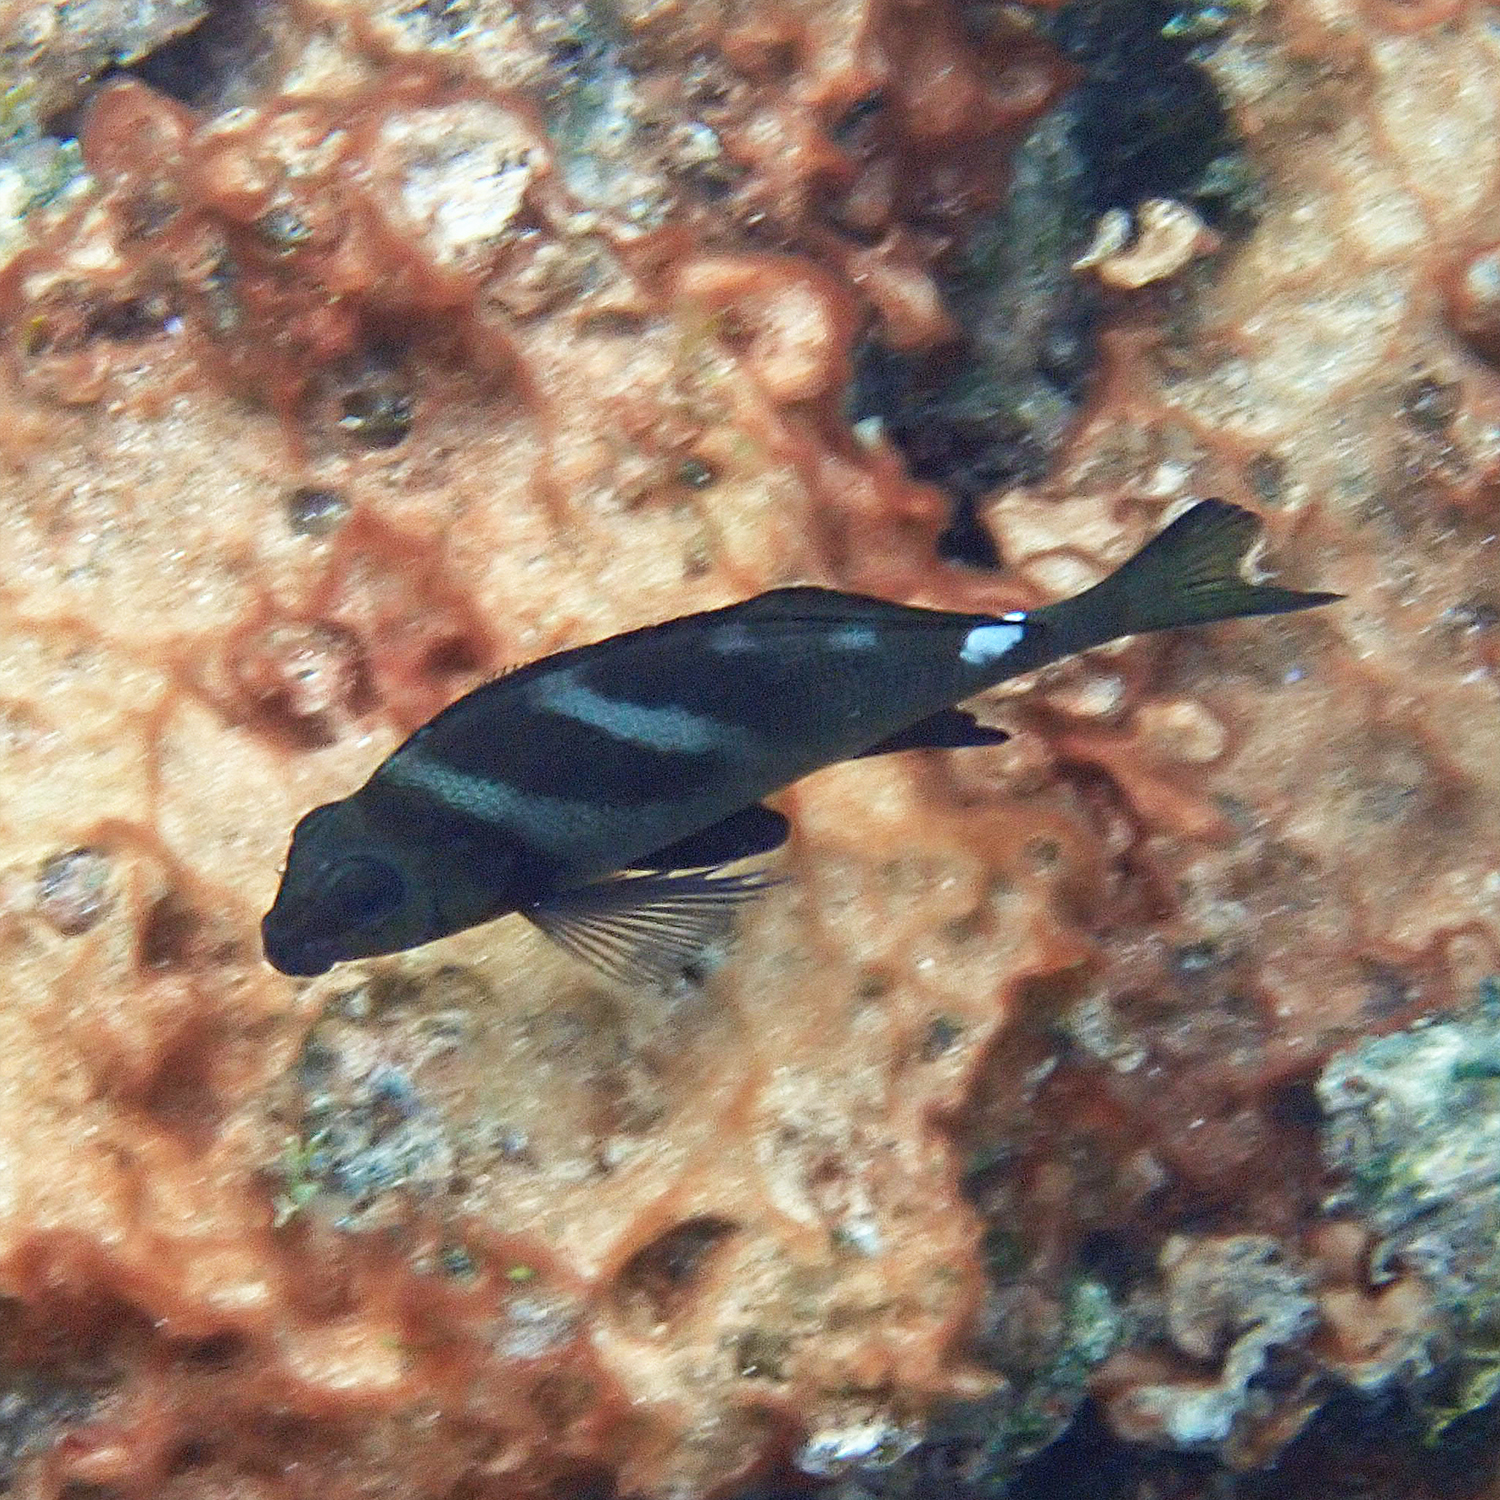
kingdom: Animalia
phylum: Chordata
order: Perciformes
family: Latridae
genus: Morwong
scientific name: Morwong ephippium
